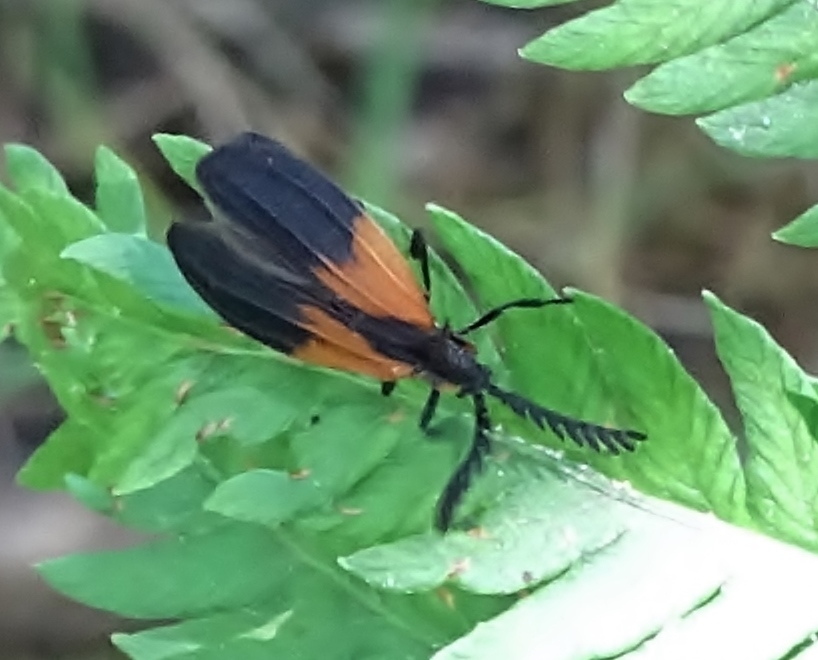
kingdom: Animalia
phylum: Arthropoda
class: Insecta
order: Coleoptera
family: Lycidae
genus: Caenia
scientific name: Caenia dimidiata
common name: Terminal net-winged beetle
